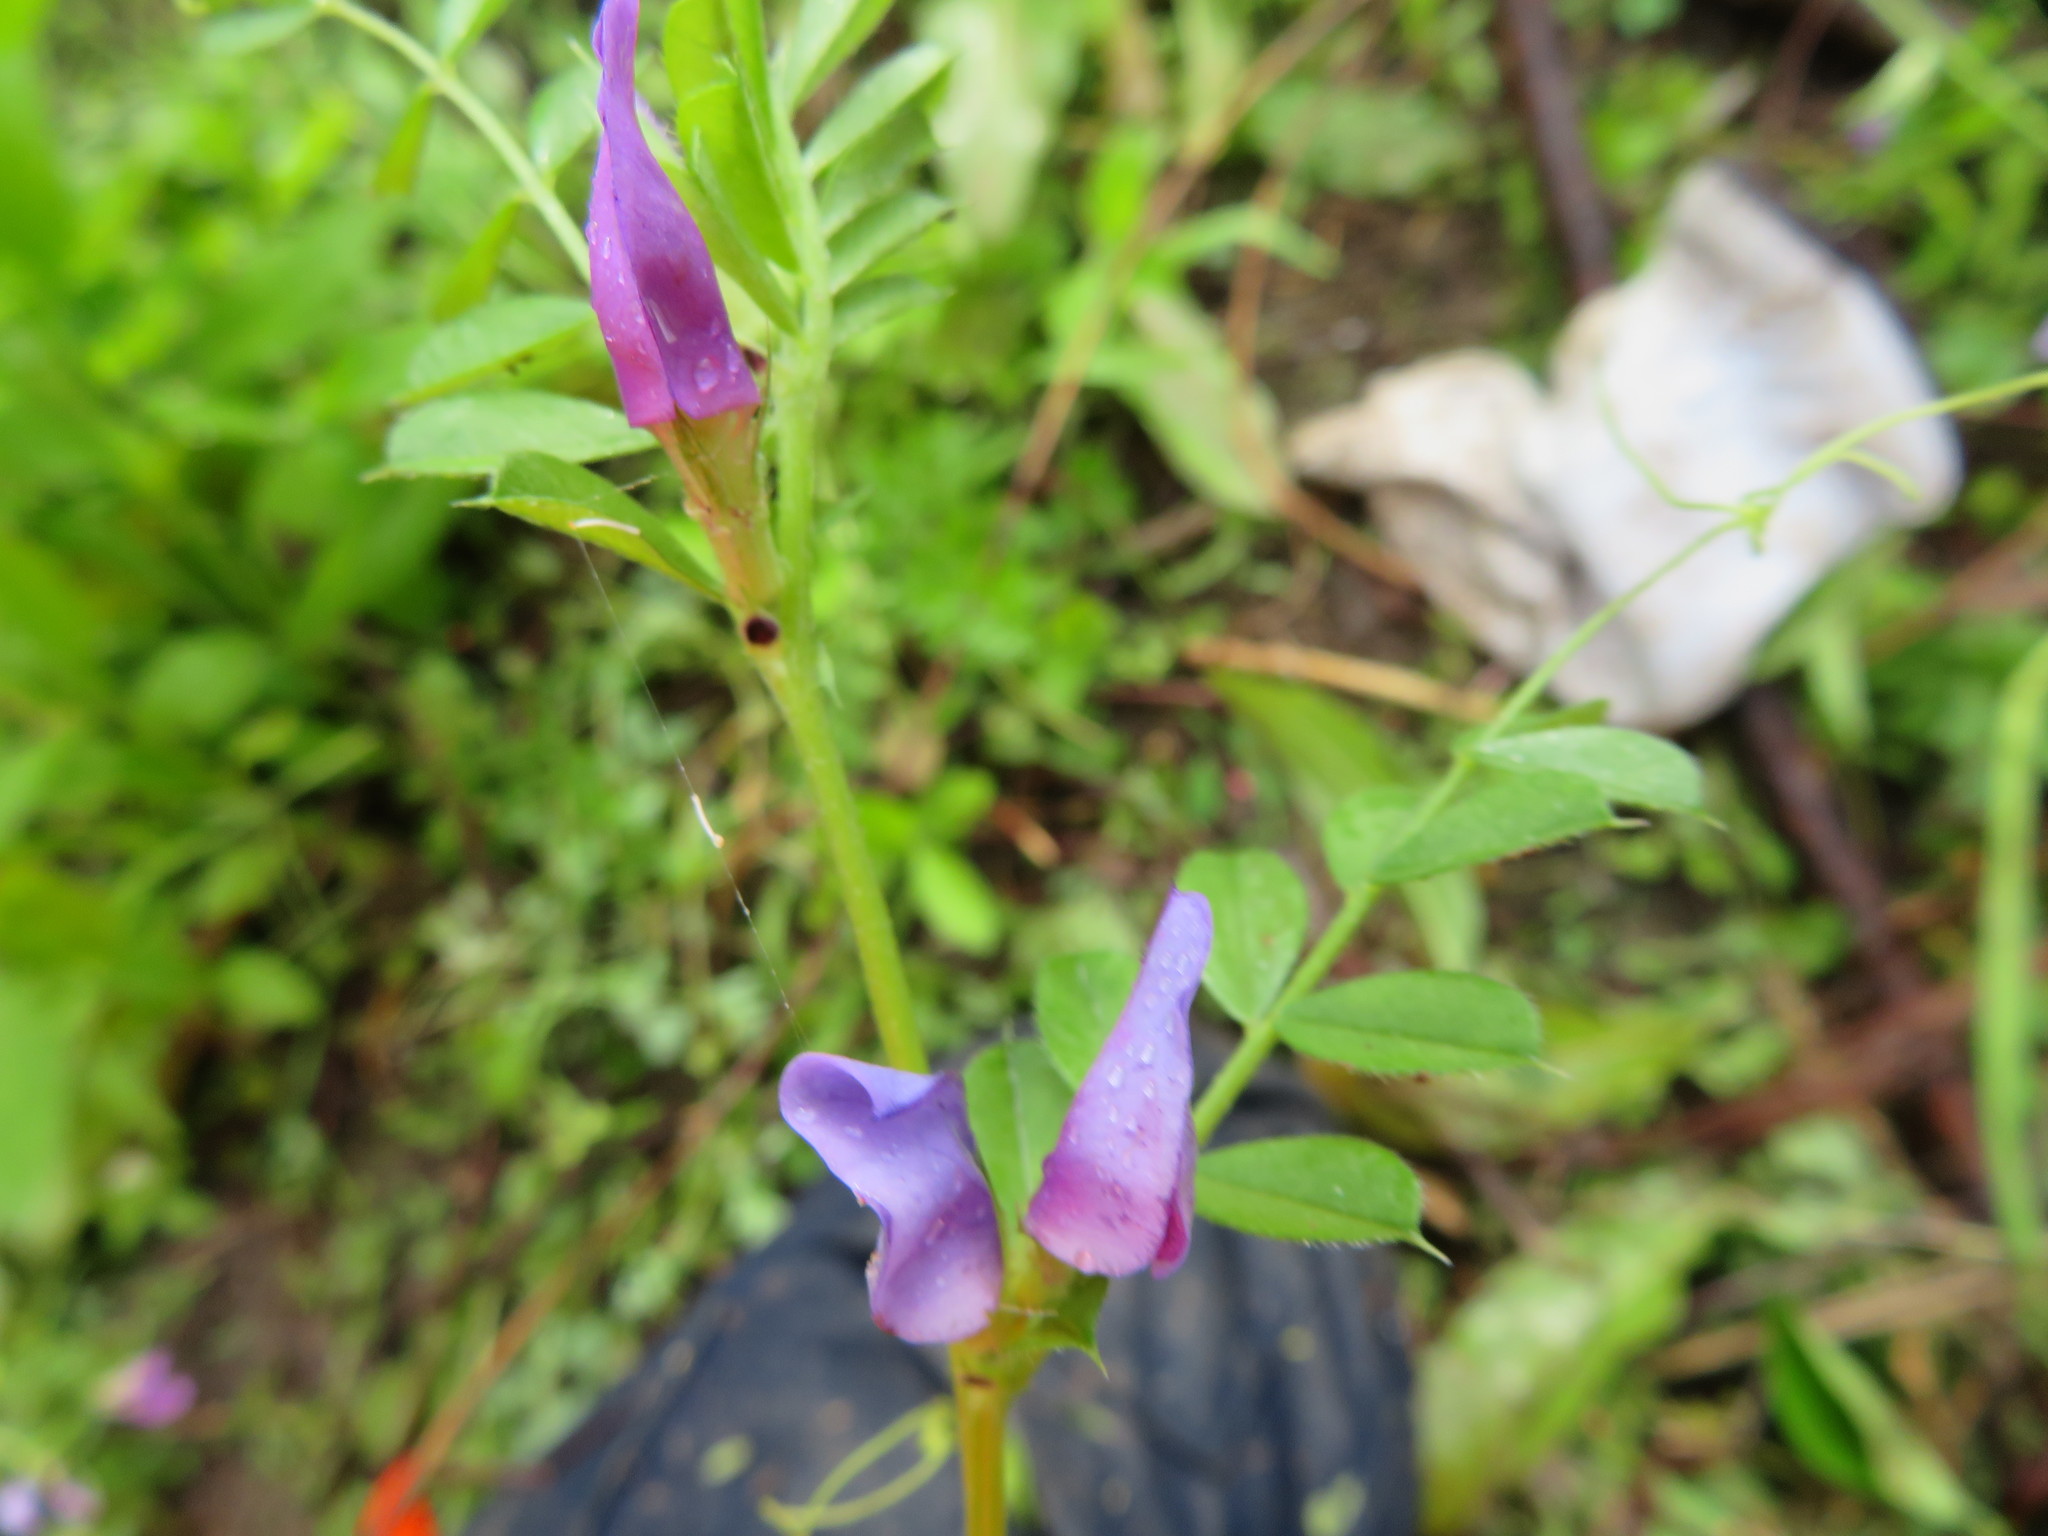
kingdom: Plantae
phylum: Tracheophyta
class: Magnoliopsida
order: Fabales
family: Fabaceae
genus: Vicia
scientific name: Vicia sativa
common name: Garden vetch
